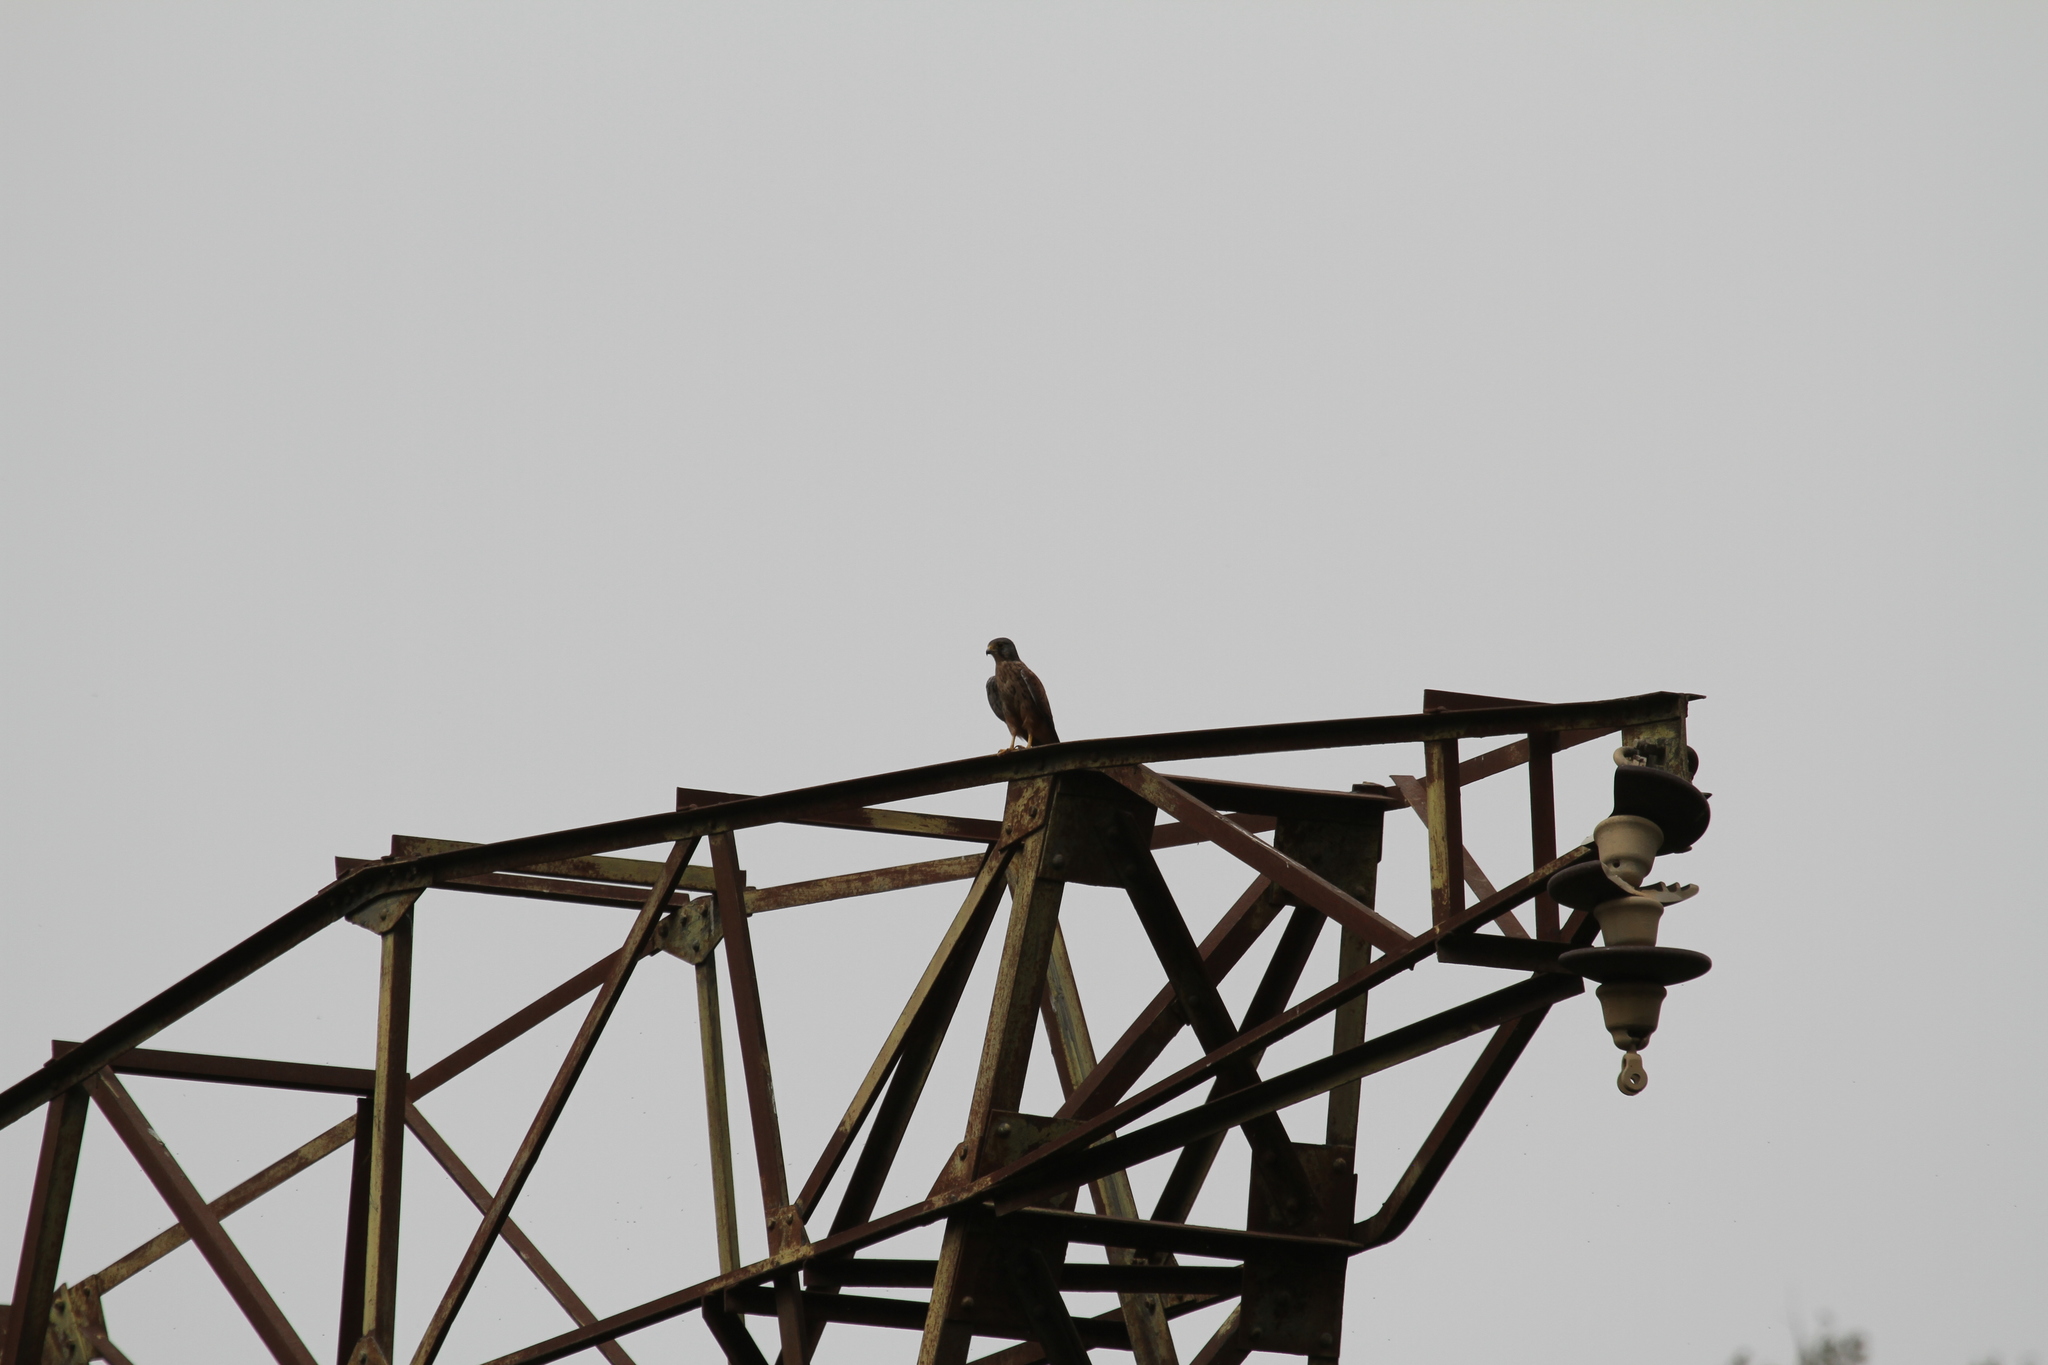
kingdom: Animalia
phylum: Chordata
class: Aves
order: Falconiformes
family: Falconidae
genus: Falco
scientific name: Falco tinnunculus
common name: Common kestrel
